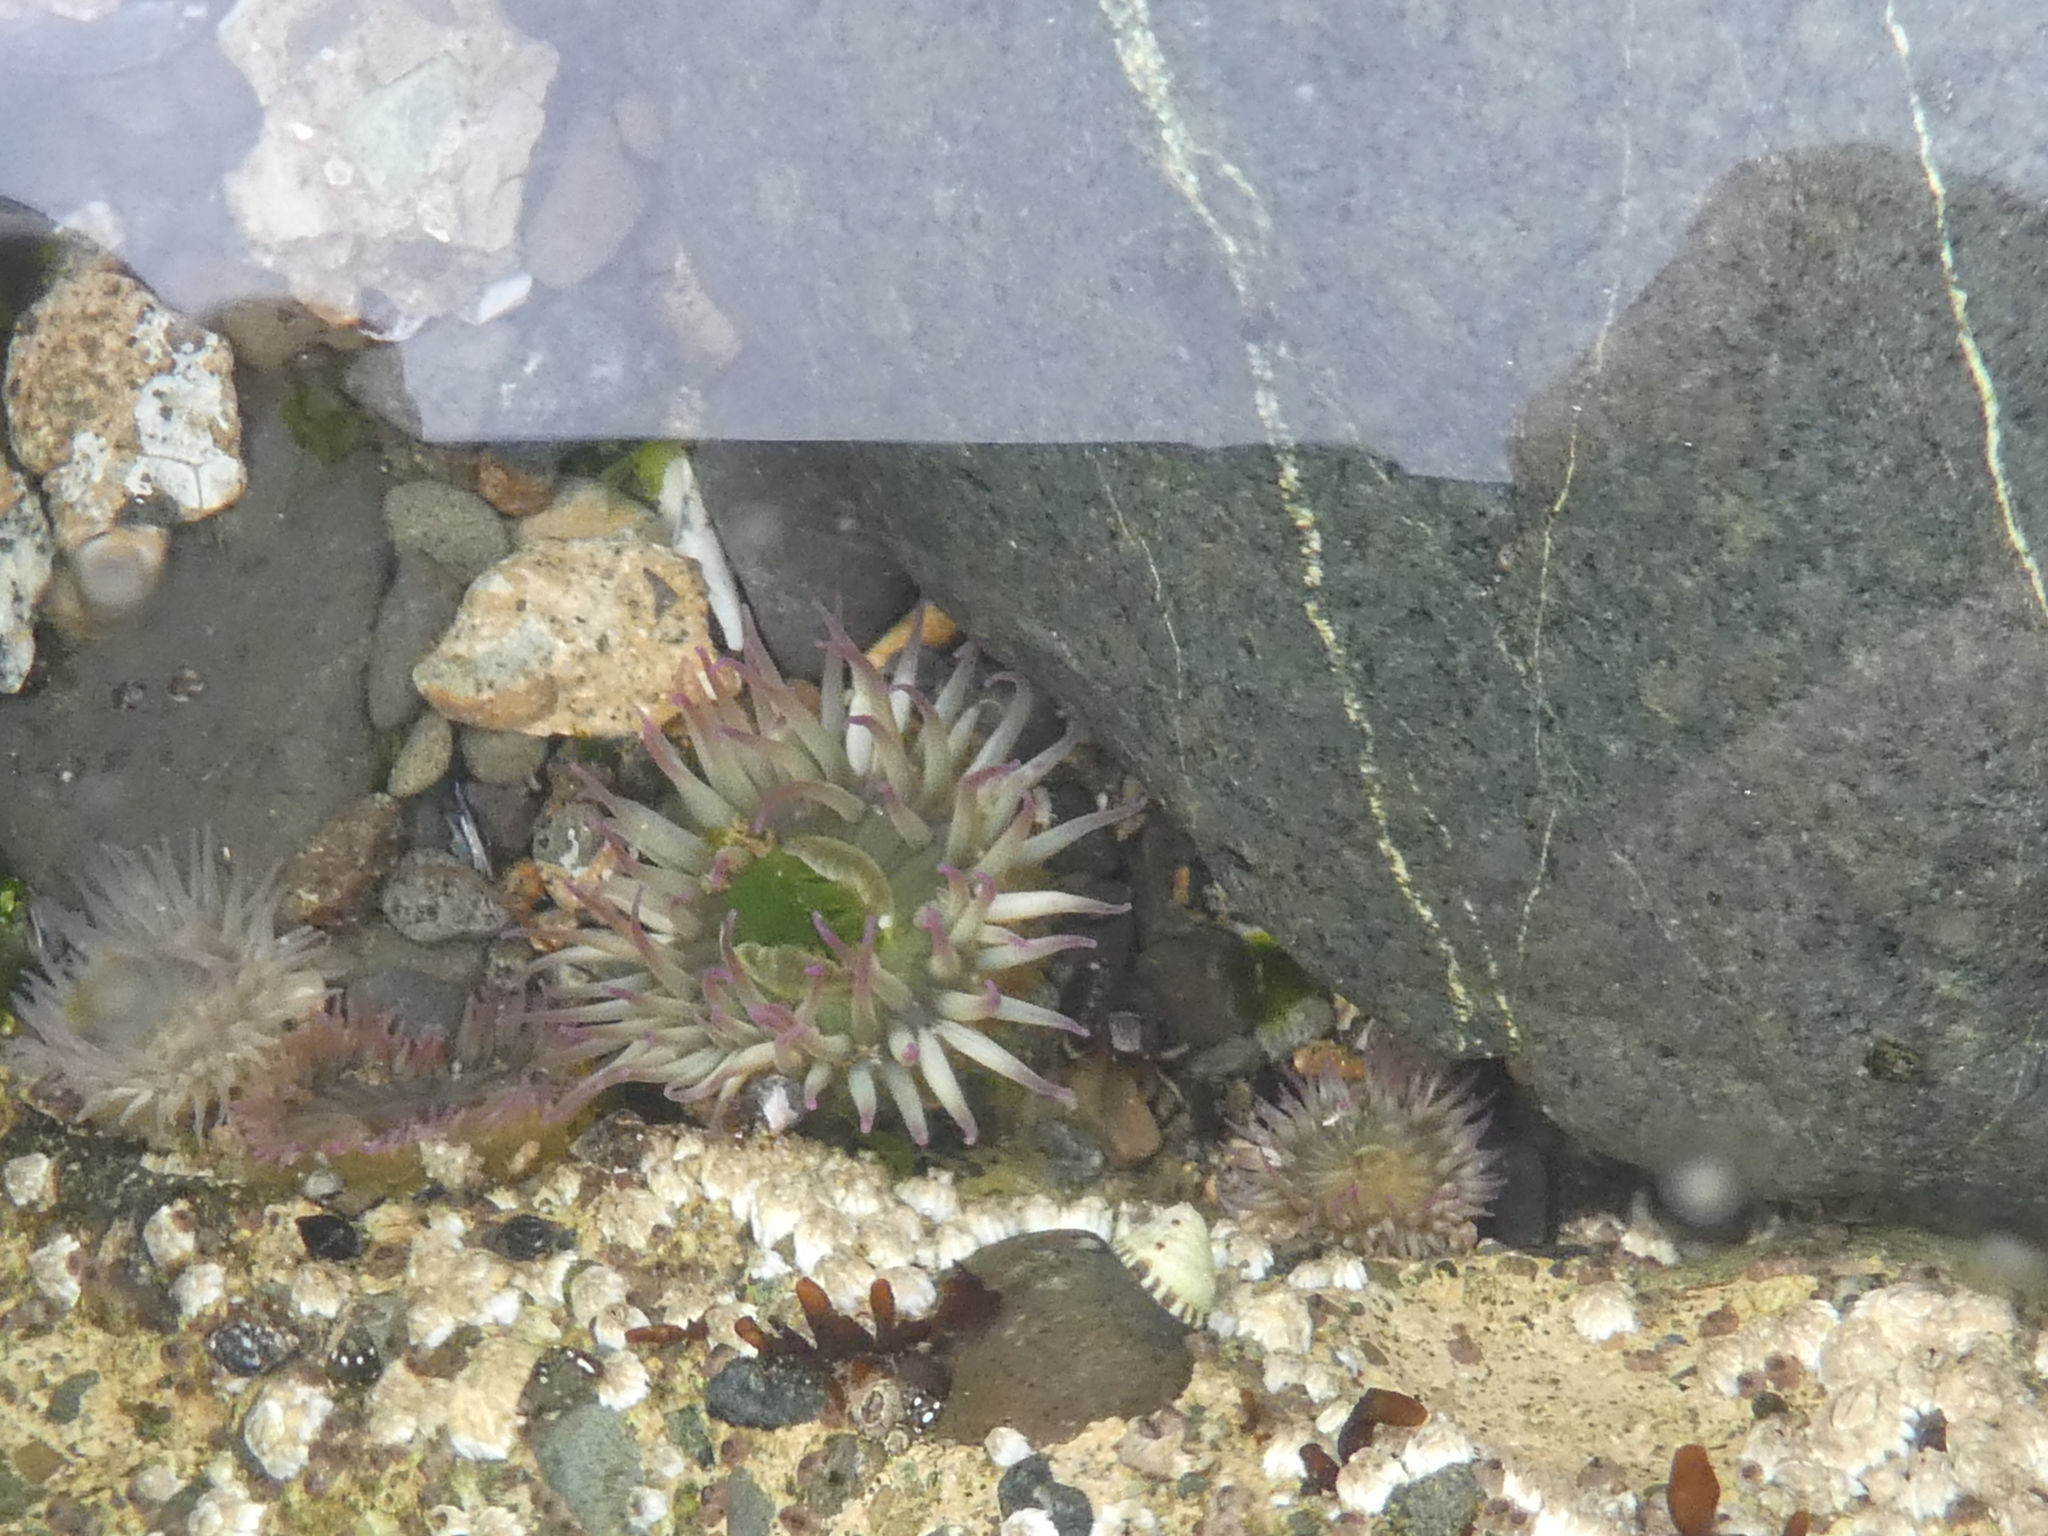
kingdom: Animalia
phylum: Cnidaria
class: Anthozoa
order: Actiniaria
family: Actiniidae
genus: Anthopleura
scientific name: Anthopleura elegantissima
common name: Clonal anemone
